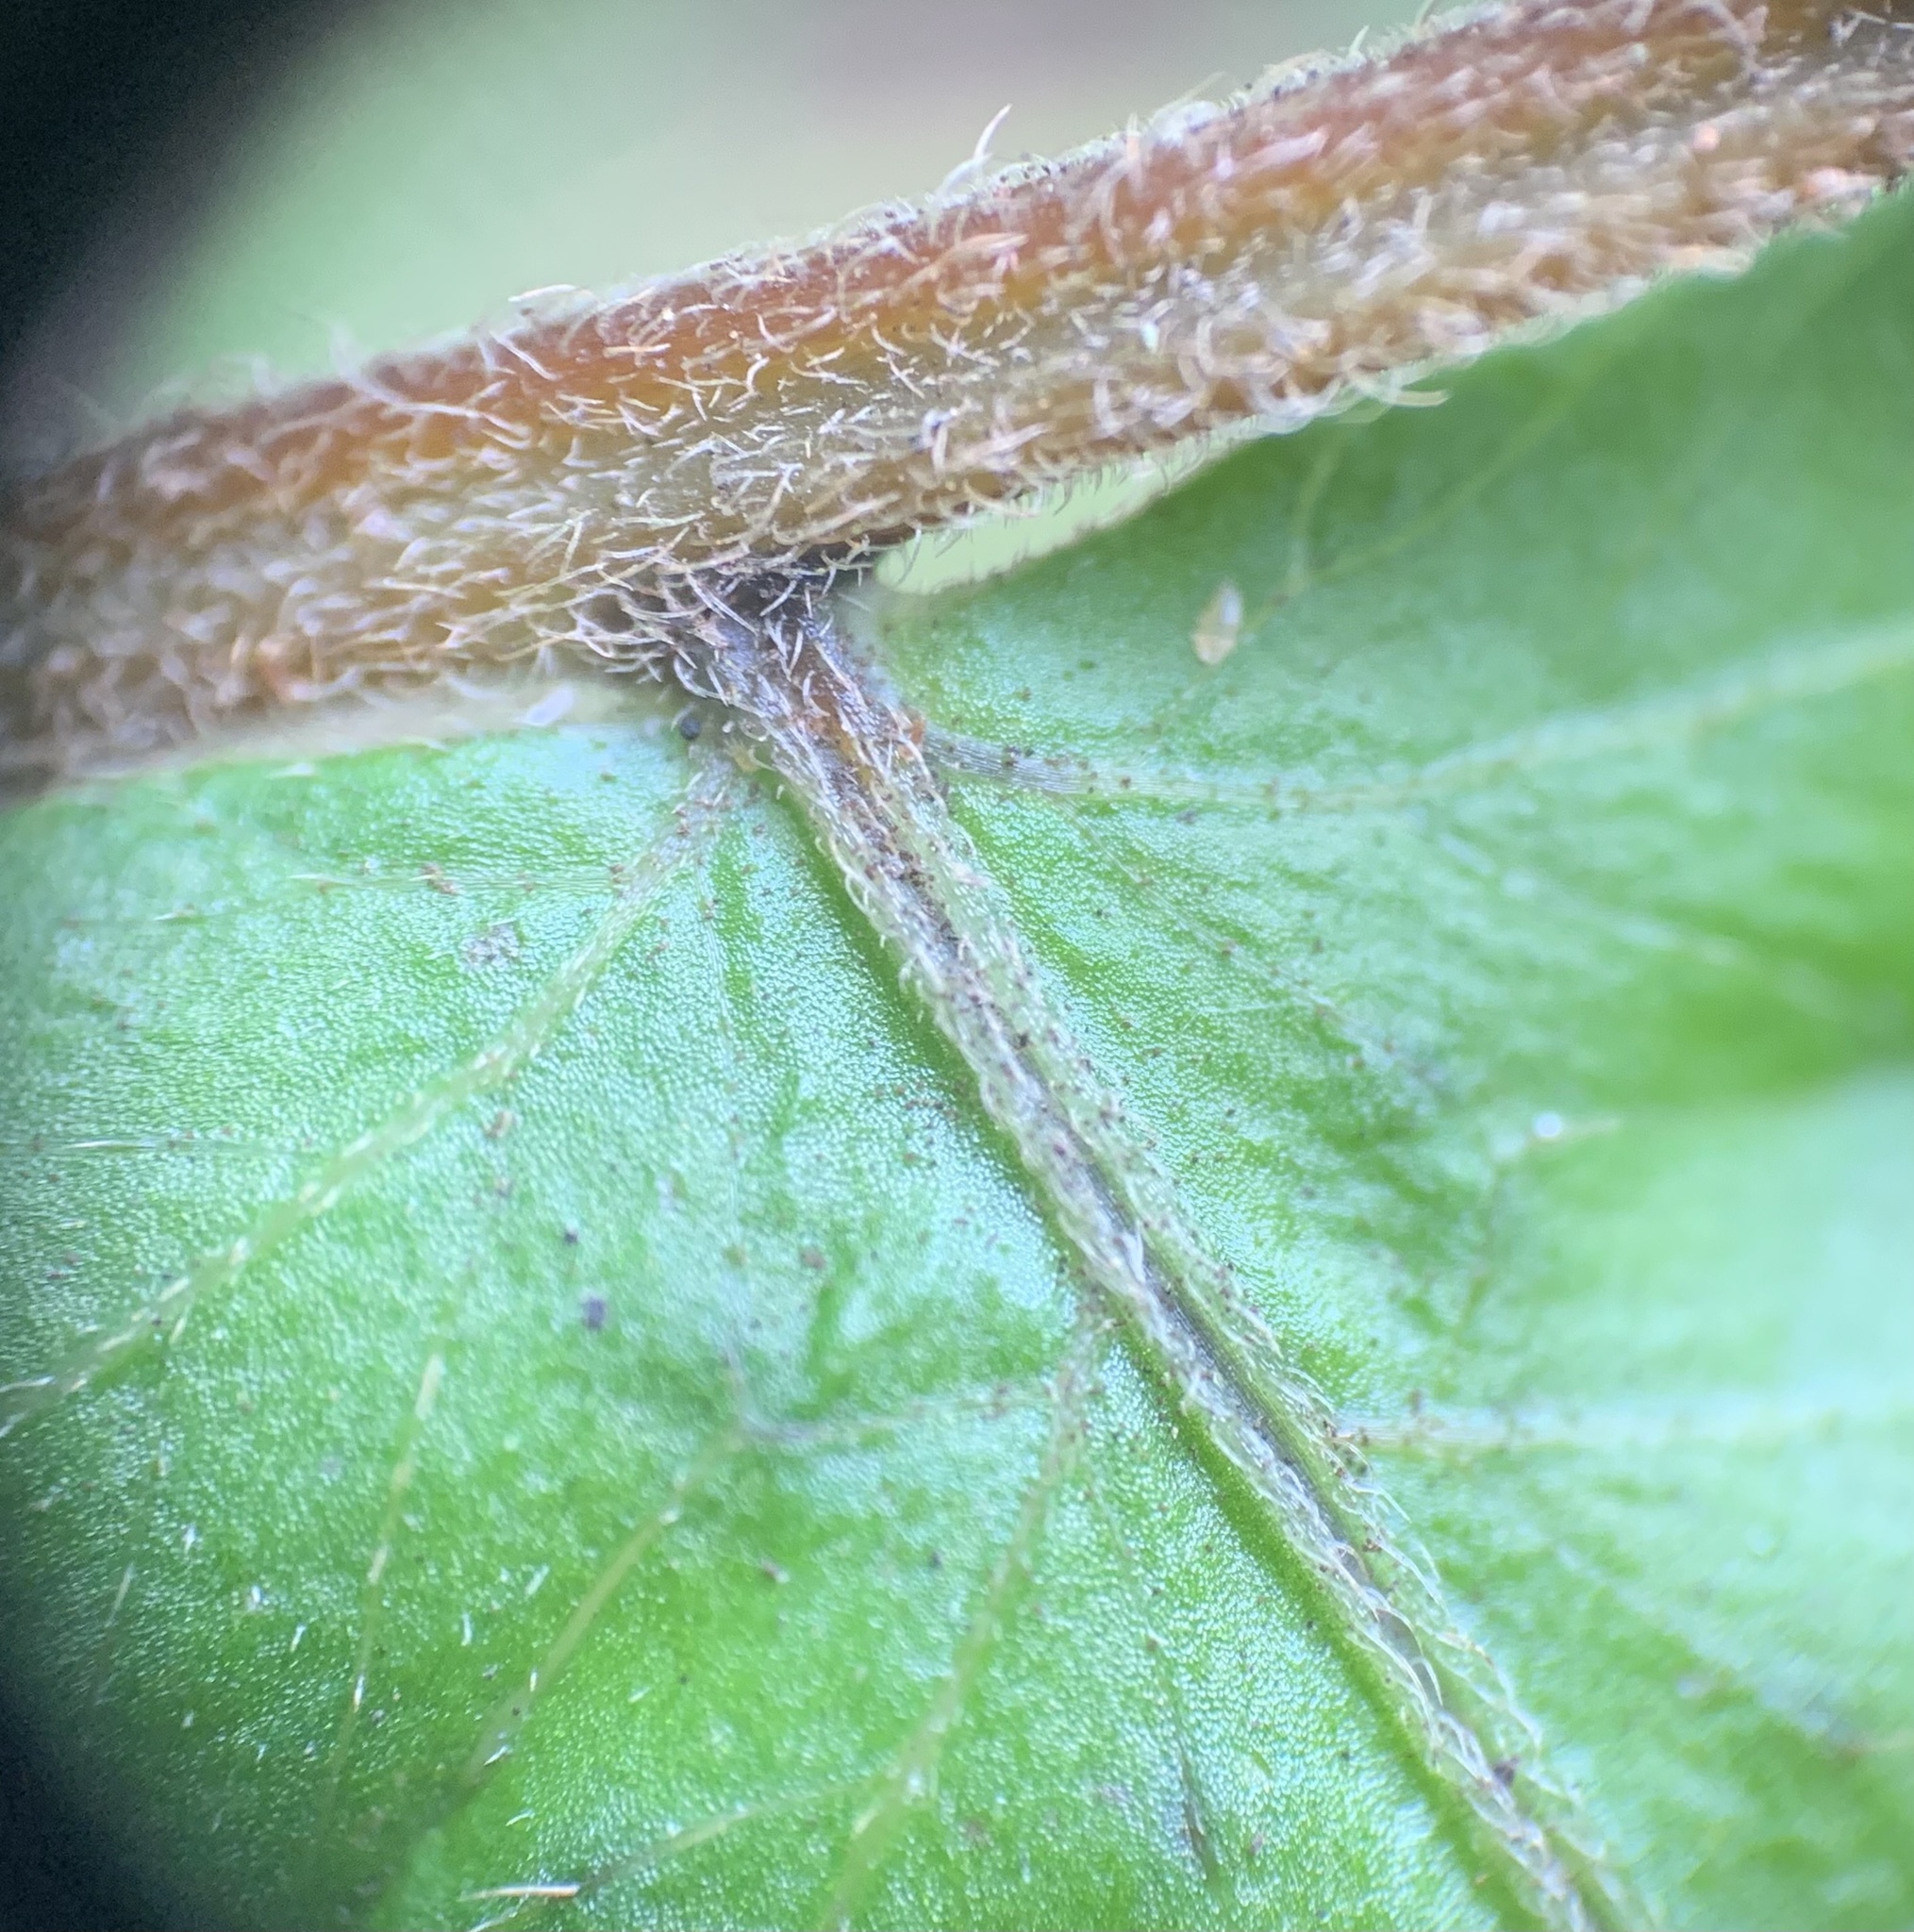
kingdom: Plantae
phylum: Tracheophyta
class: Polypodiopsida
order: Polypodiales
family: Thelypteridaceae
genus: Christella
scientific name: Christella dentata
